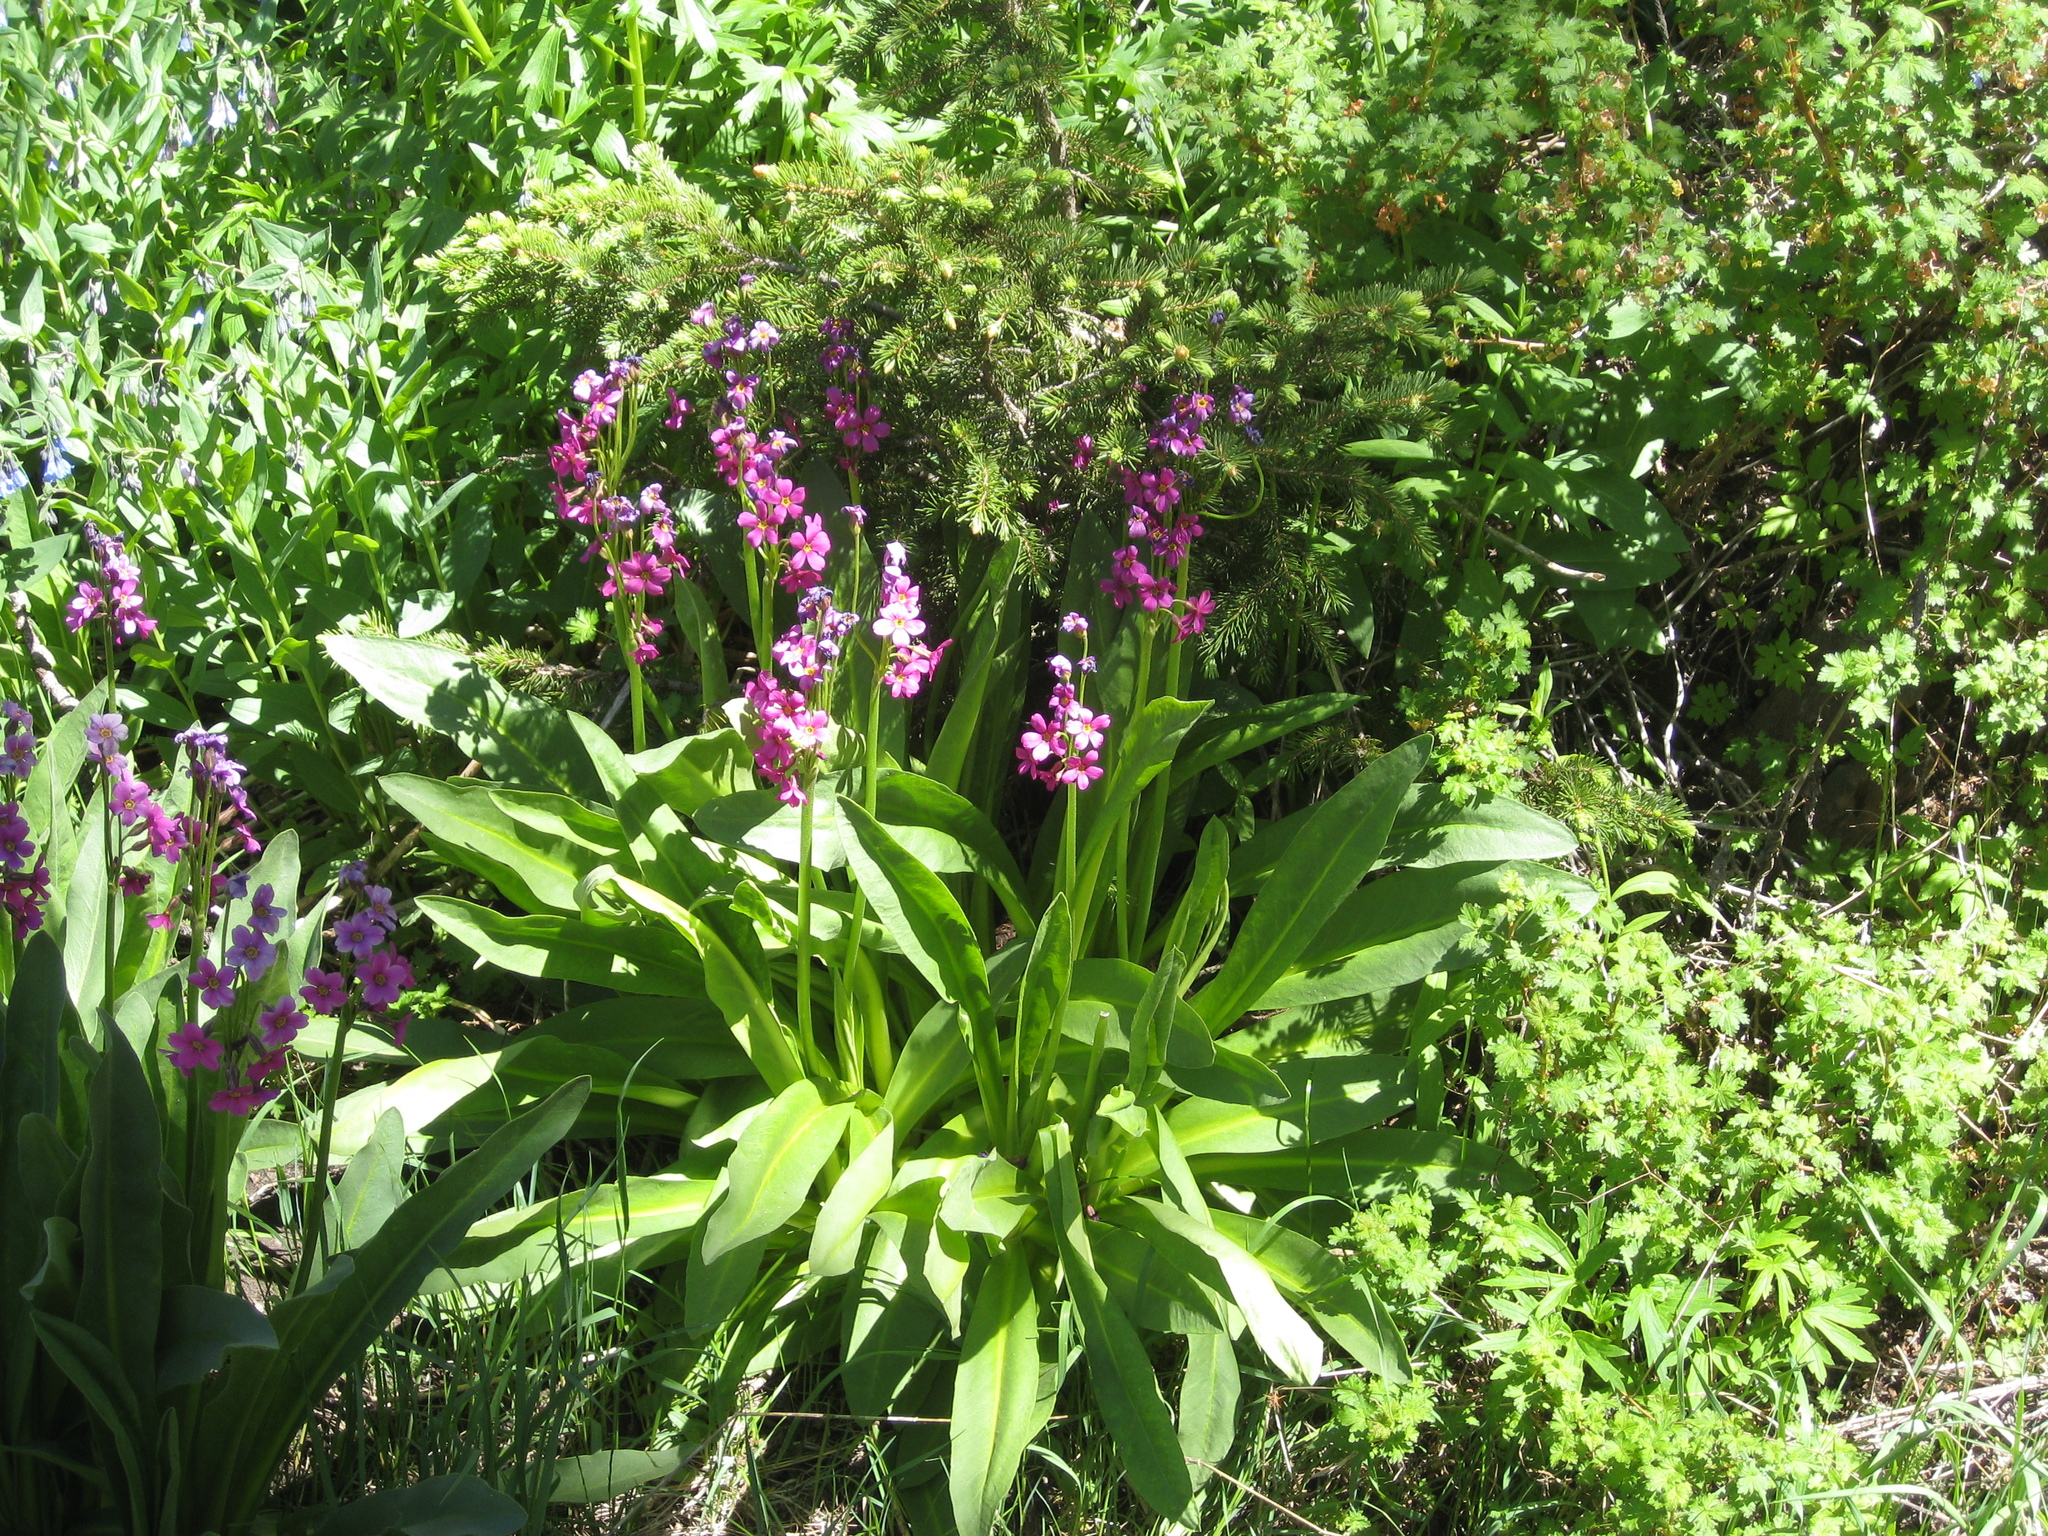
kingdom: Plantae
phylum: Tracheophyta
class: Magnoliopsida
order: Ericales
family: Primulaceae
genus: Primula
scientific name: Primula parryi
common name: Parry's primrose
